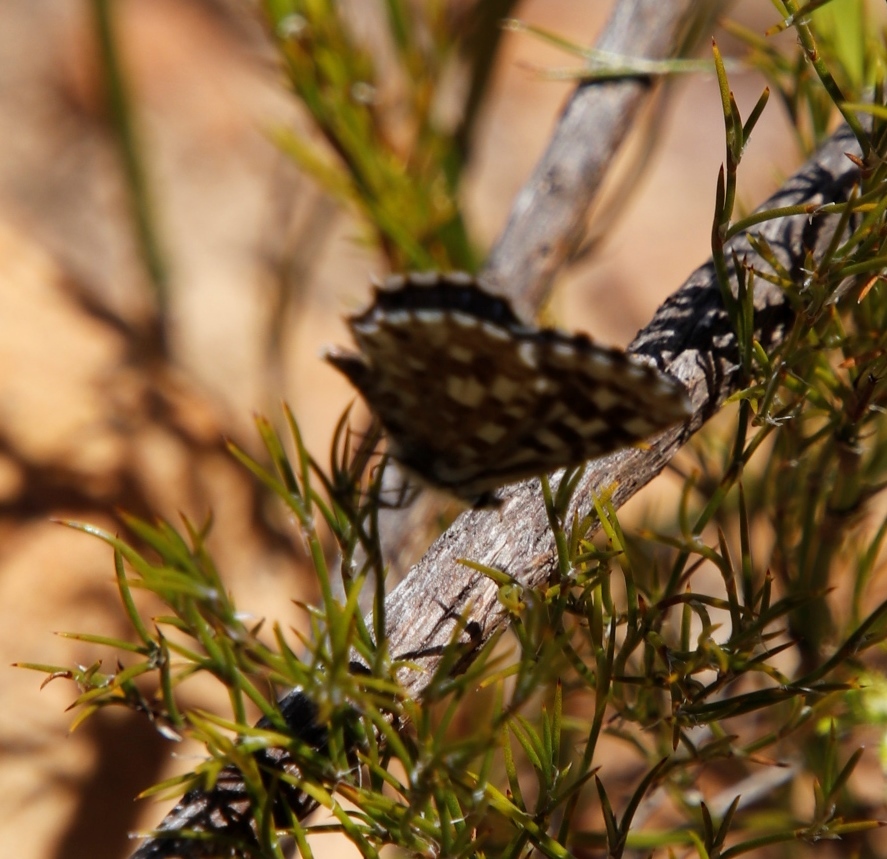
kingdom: Animalia
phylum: Arthropoda
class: Insecta
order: Lepidoptera
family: Lycaenidae
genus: Tarucus
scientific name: Tarucus thespis
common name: Vivid dotted blue
